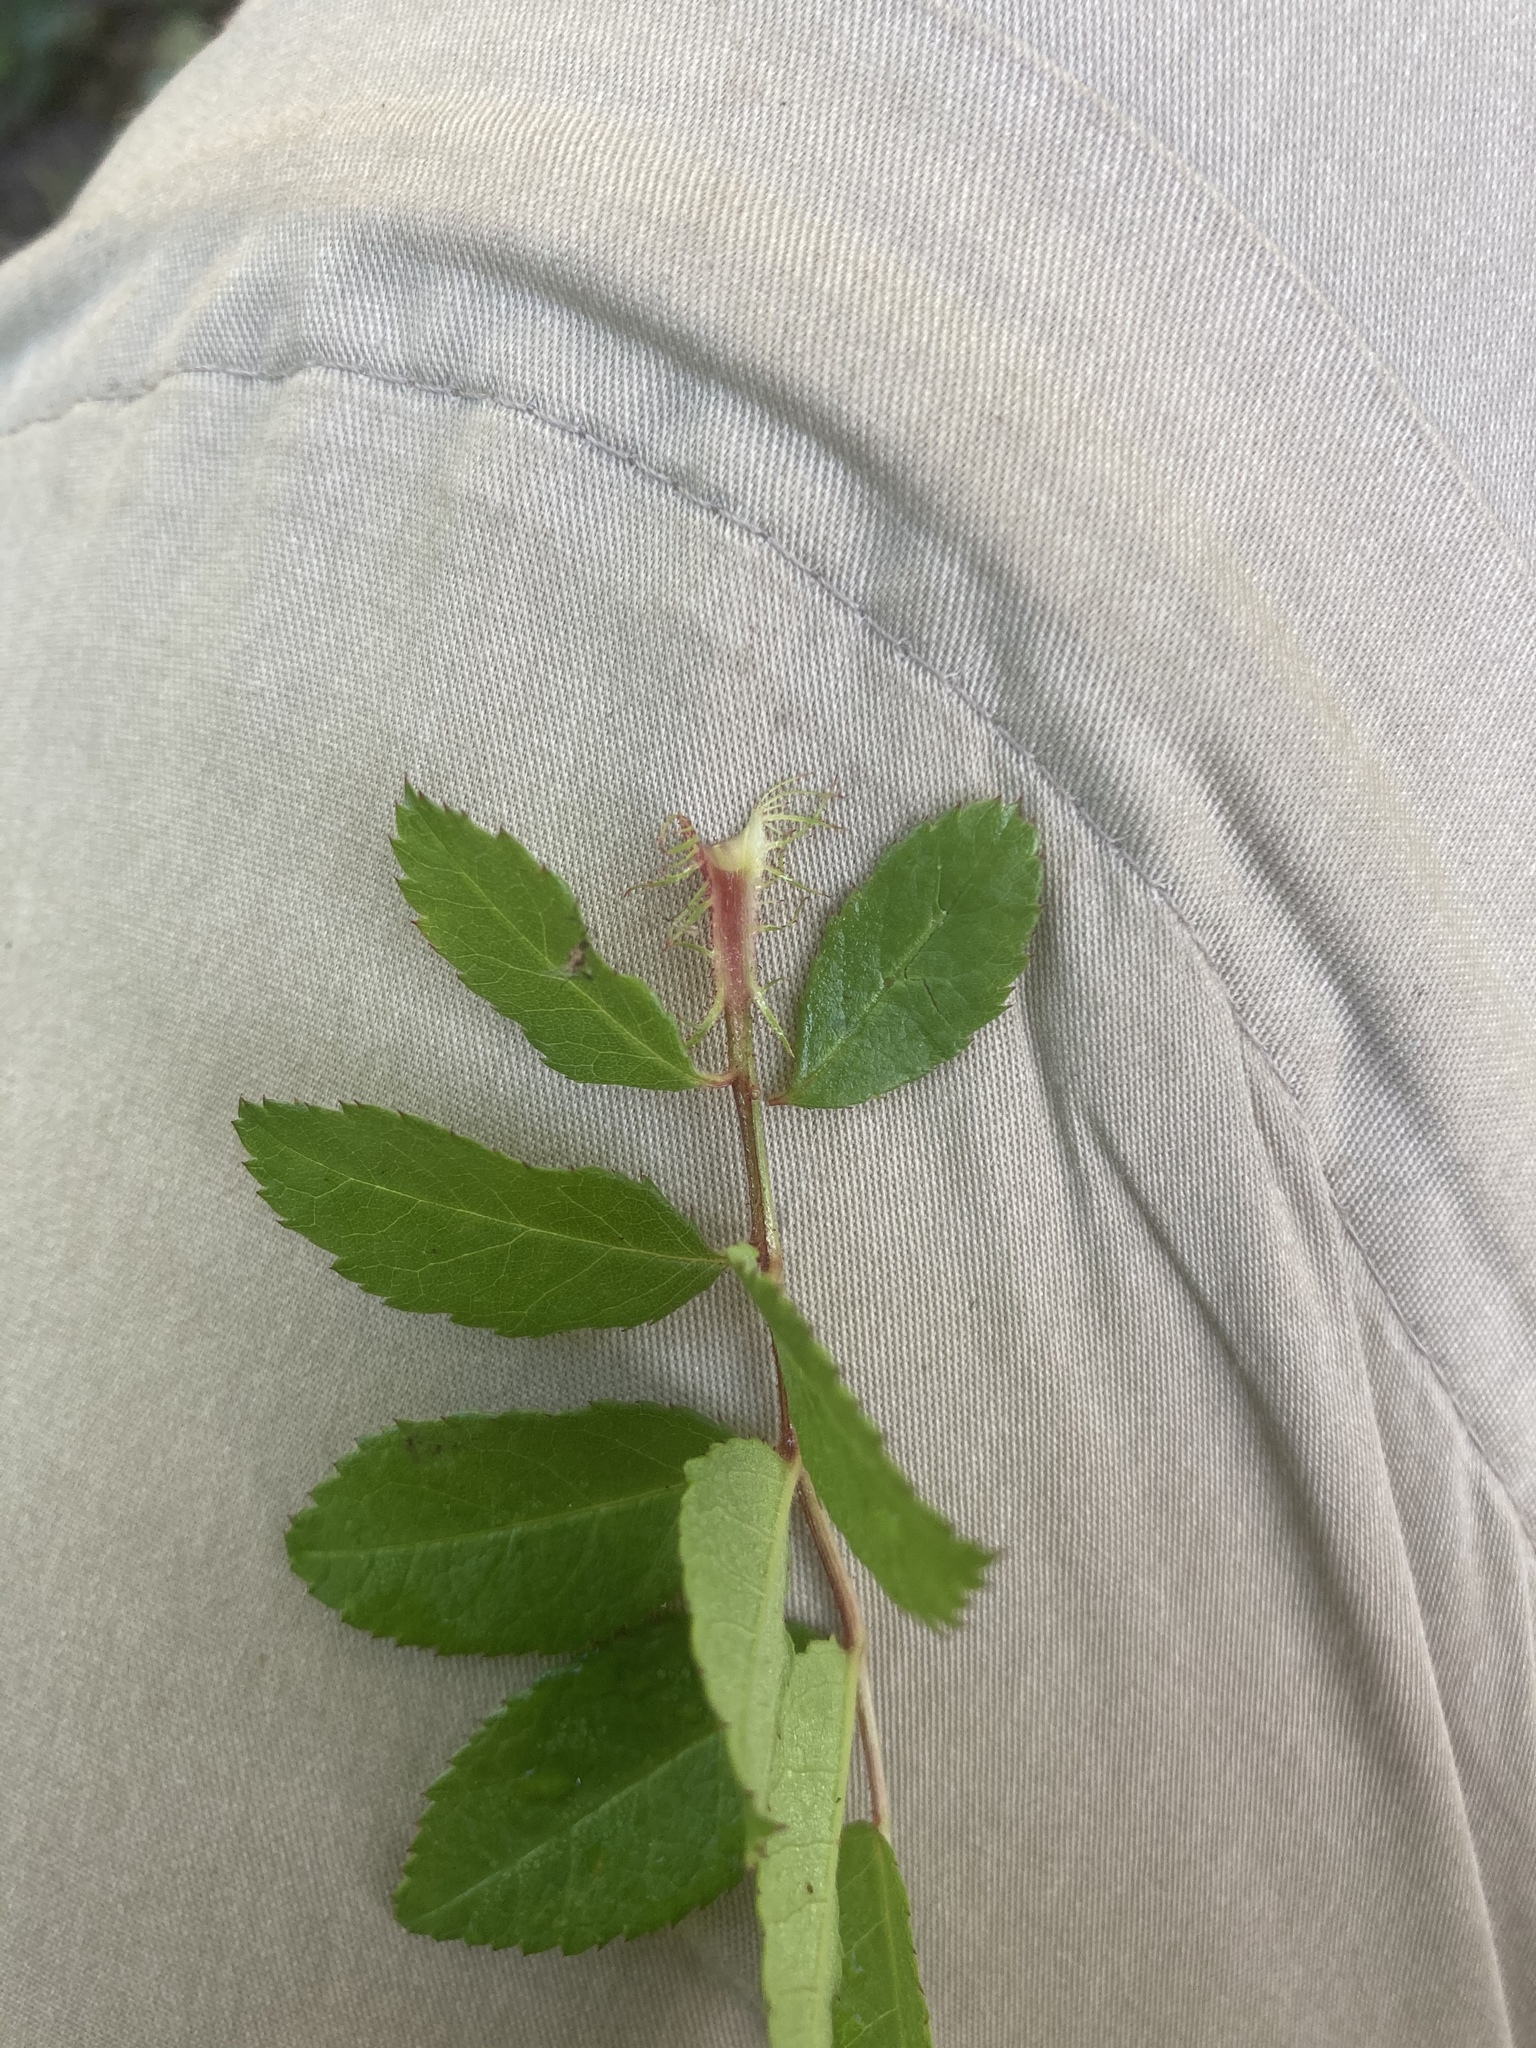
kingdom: Plantae
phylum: Tracheophyta
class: Magnoliopsida
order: Rosales
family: Rosaceae
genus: Rosa
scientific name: Rosa multiflora
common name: Multiflora rose
